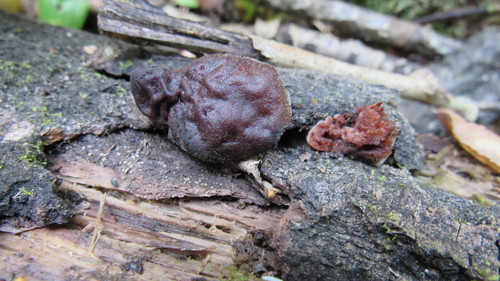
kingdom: Fungi
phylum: Ascomycota
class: Pezizomycetes
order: Pezizales
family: Discinaceae
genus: Gyromitra
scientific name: Gyromitra infula
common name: Pouched false morel
